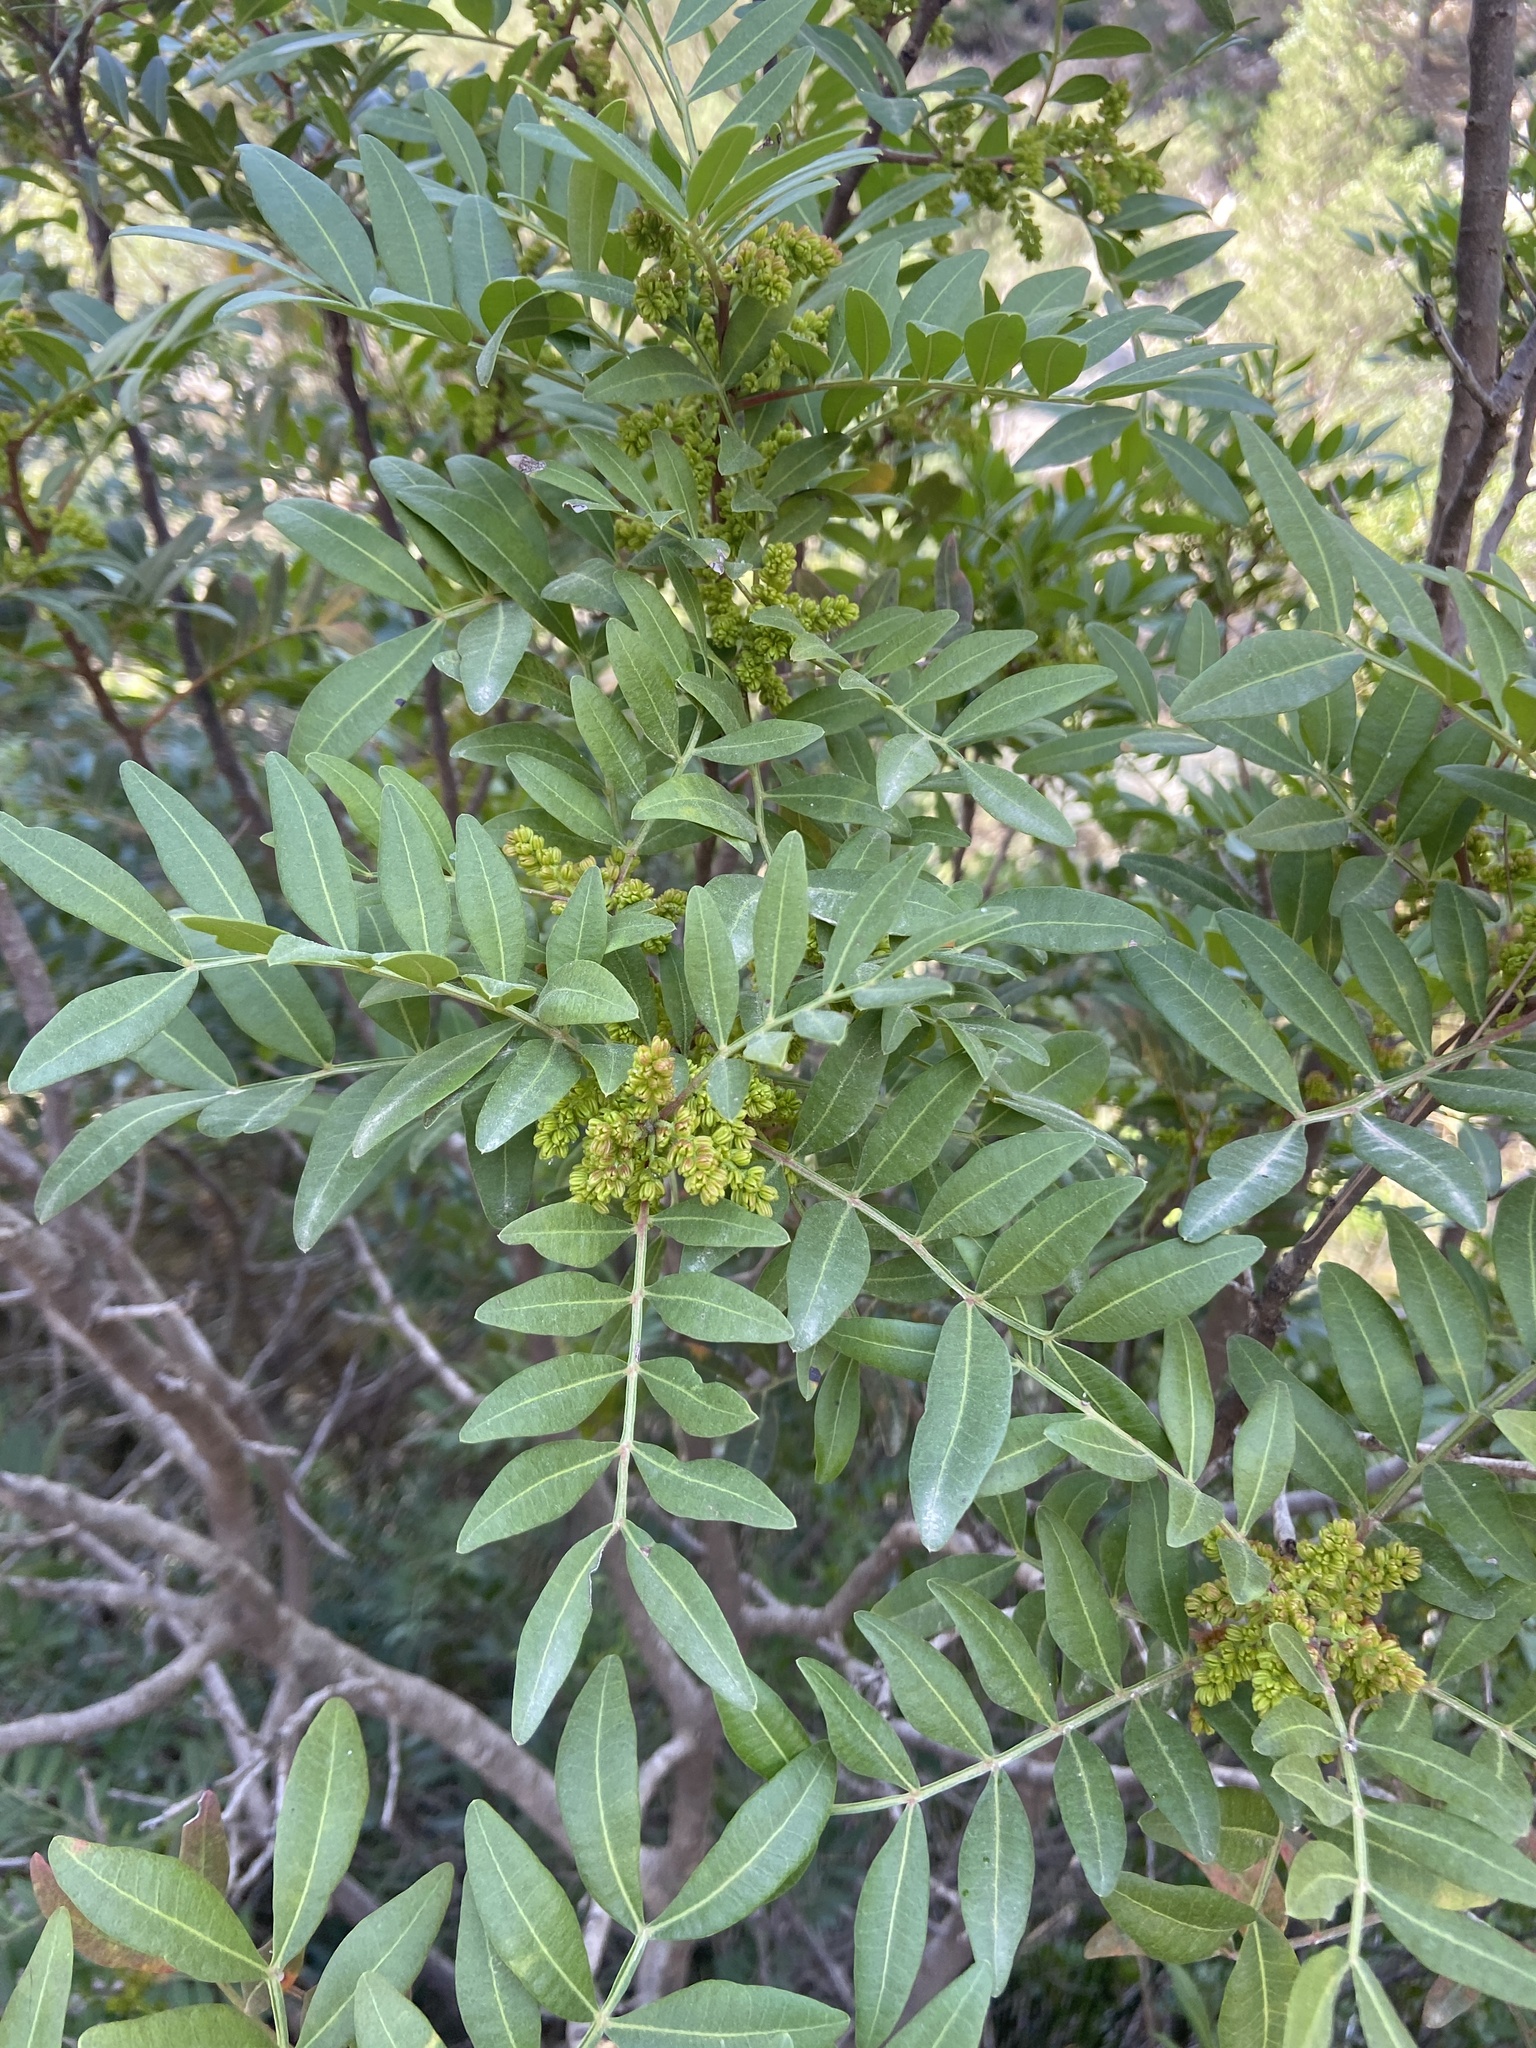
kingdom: Plantae
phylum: Tracheophyta
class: Magnoliopsida
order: Sapindales
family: Anacardiaceae
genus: Pistacia
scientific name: Pistacia lentiscus
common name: Lentisk
